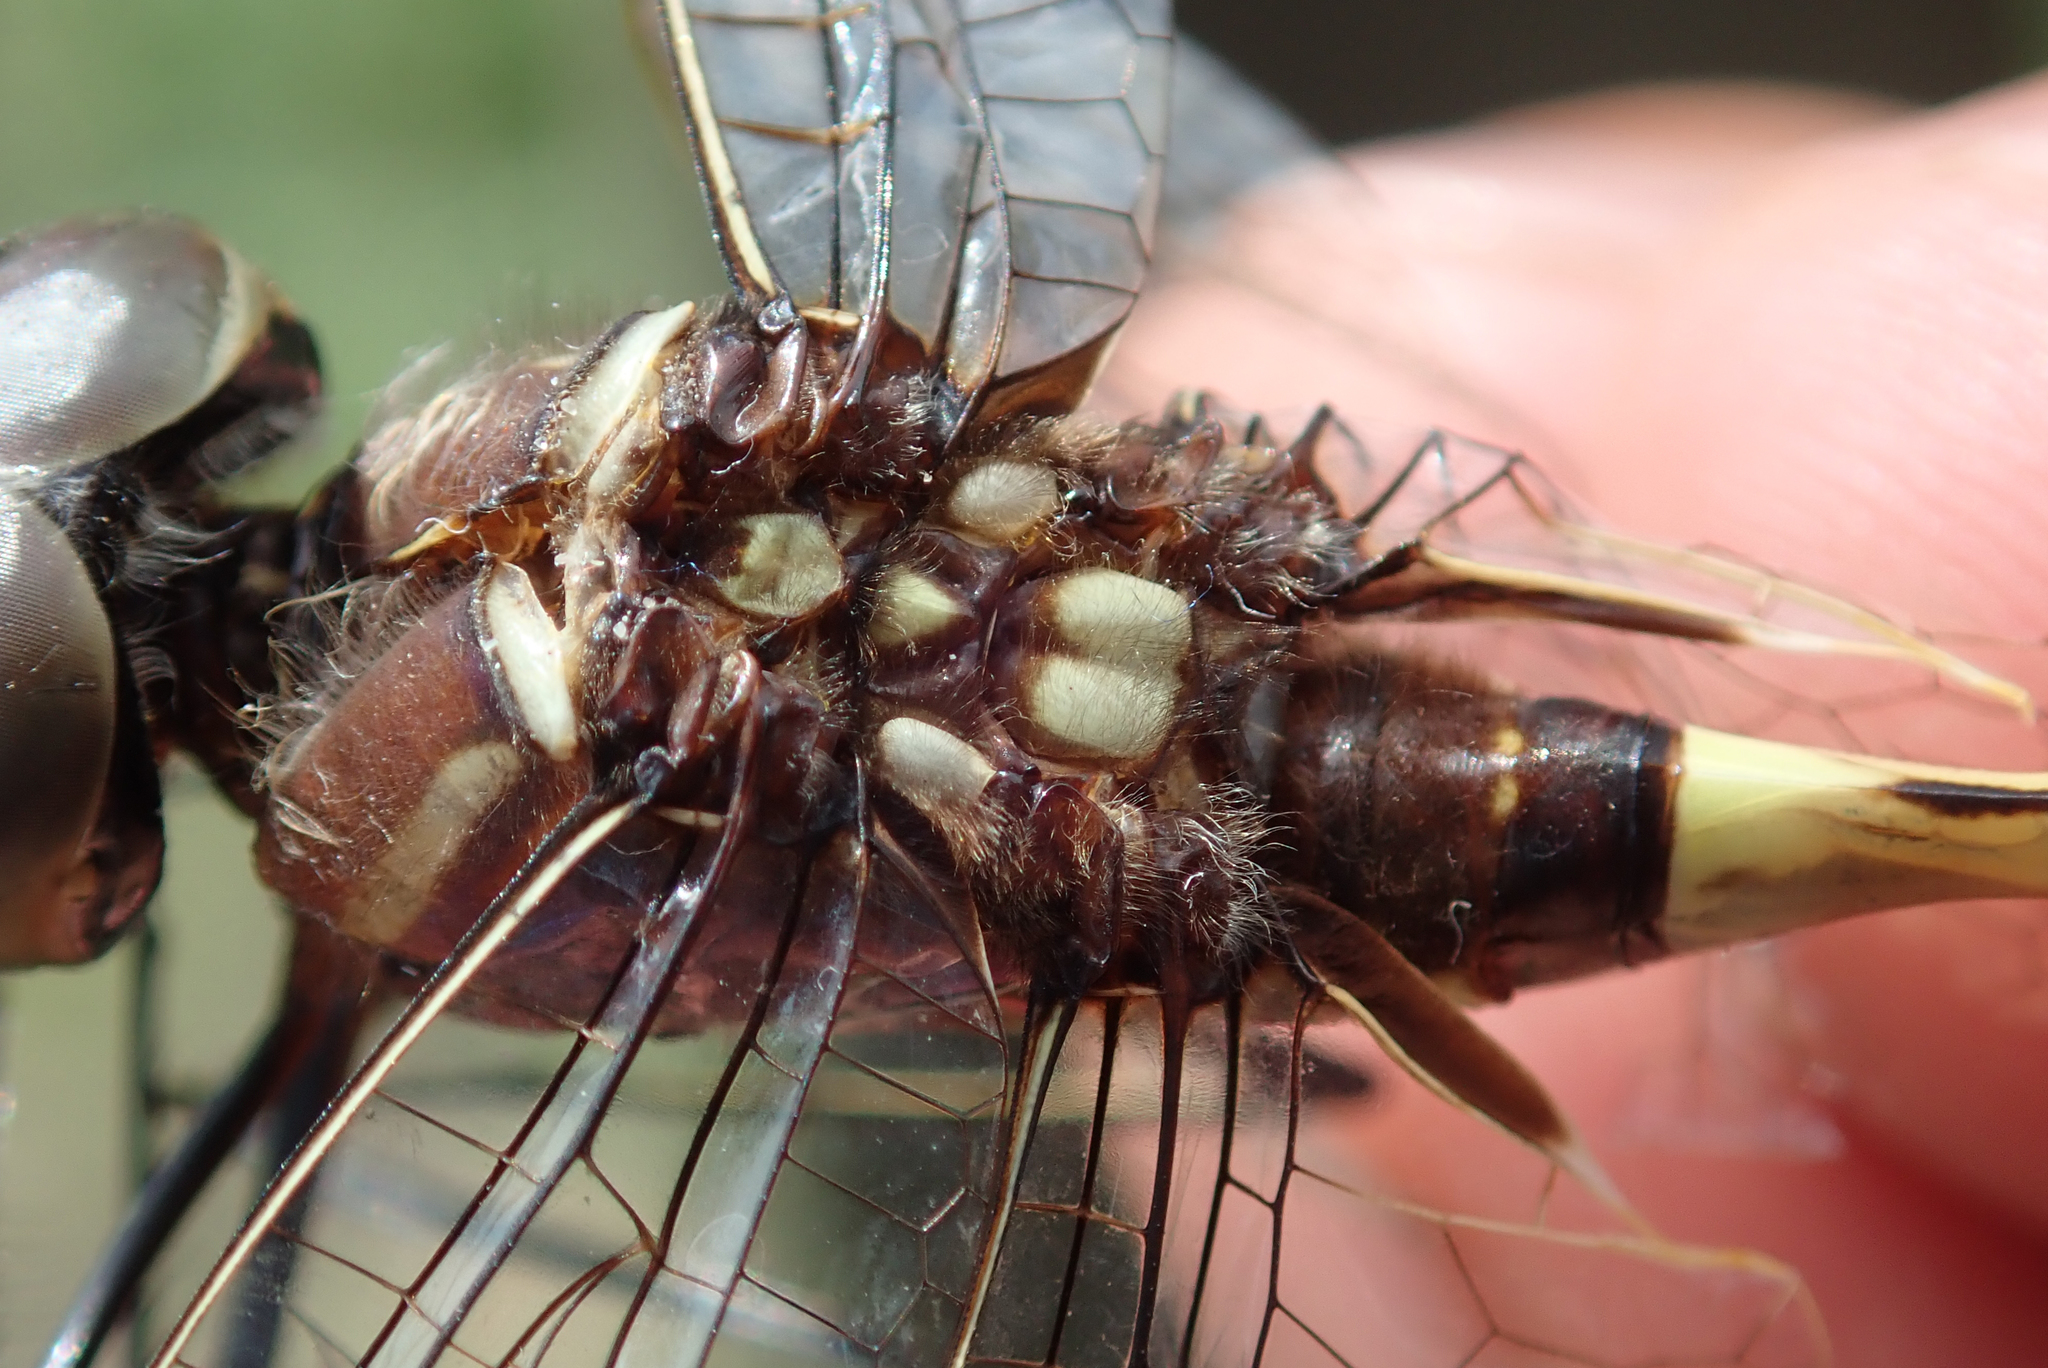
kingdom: Animalia
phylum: Arthropoda
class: Insecta
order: Odonata
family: Macromiidae
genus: Phyllomacromia
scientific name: Phyllomacromia contumax
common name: Two-banded cruiser
